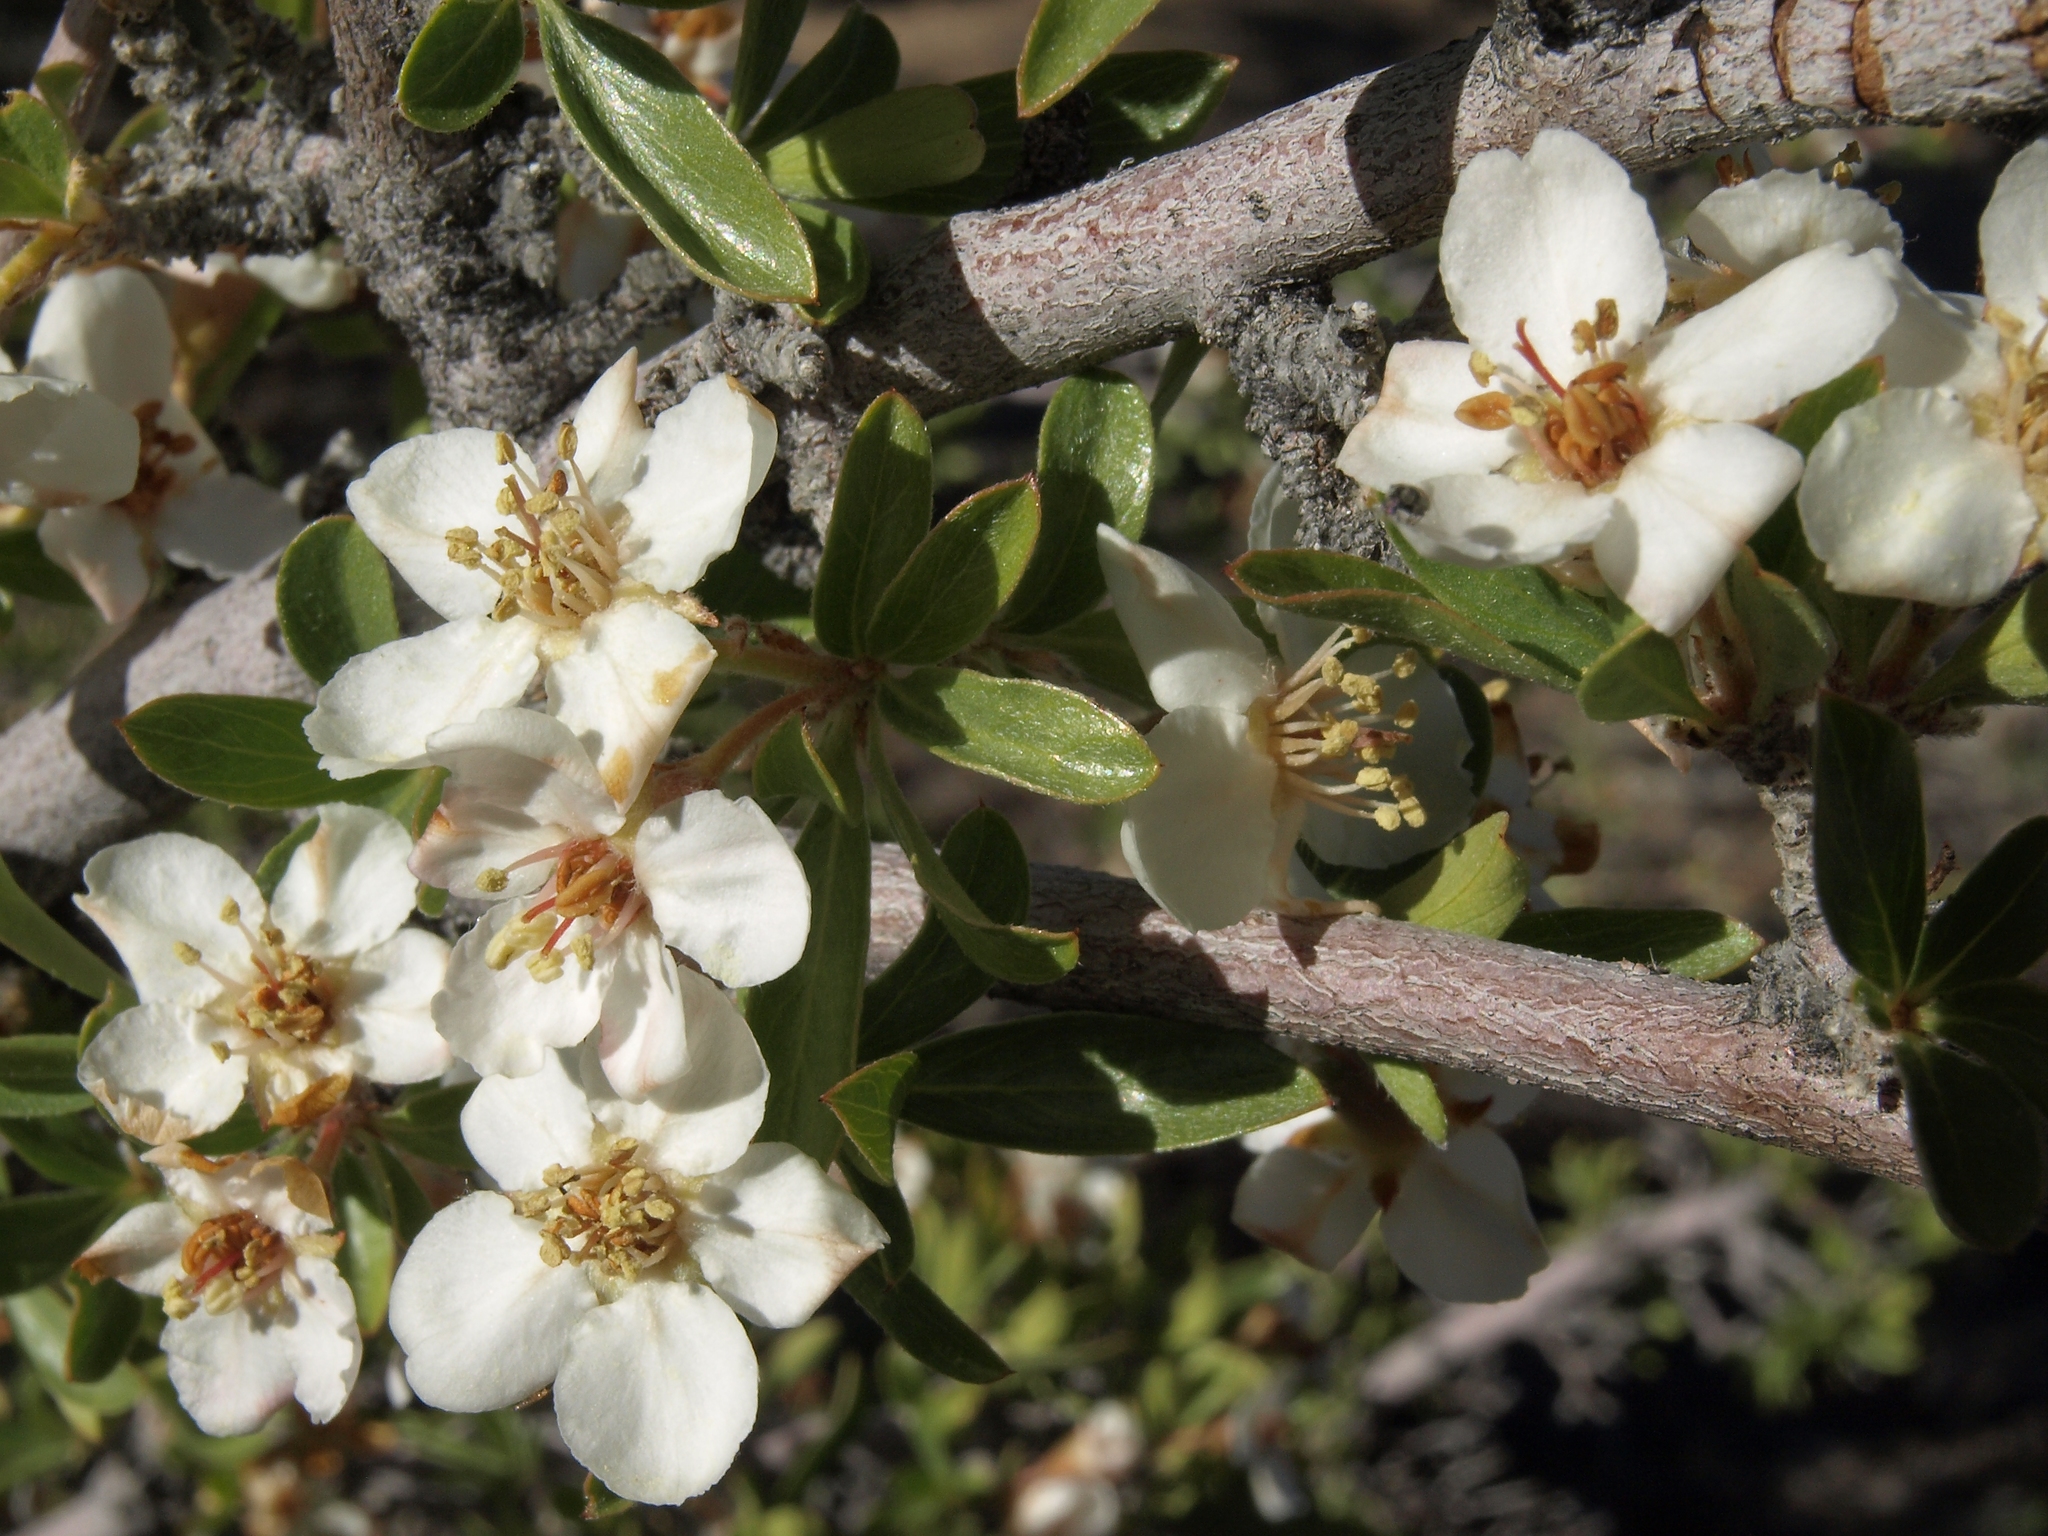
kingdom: Plantae
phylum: Tracheophyta
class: Magnoliopsida
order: Rosales
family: Rosaceae
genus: Amelanchier
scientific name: Amelanchier ramosissima
